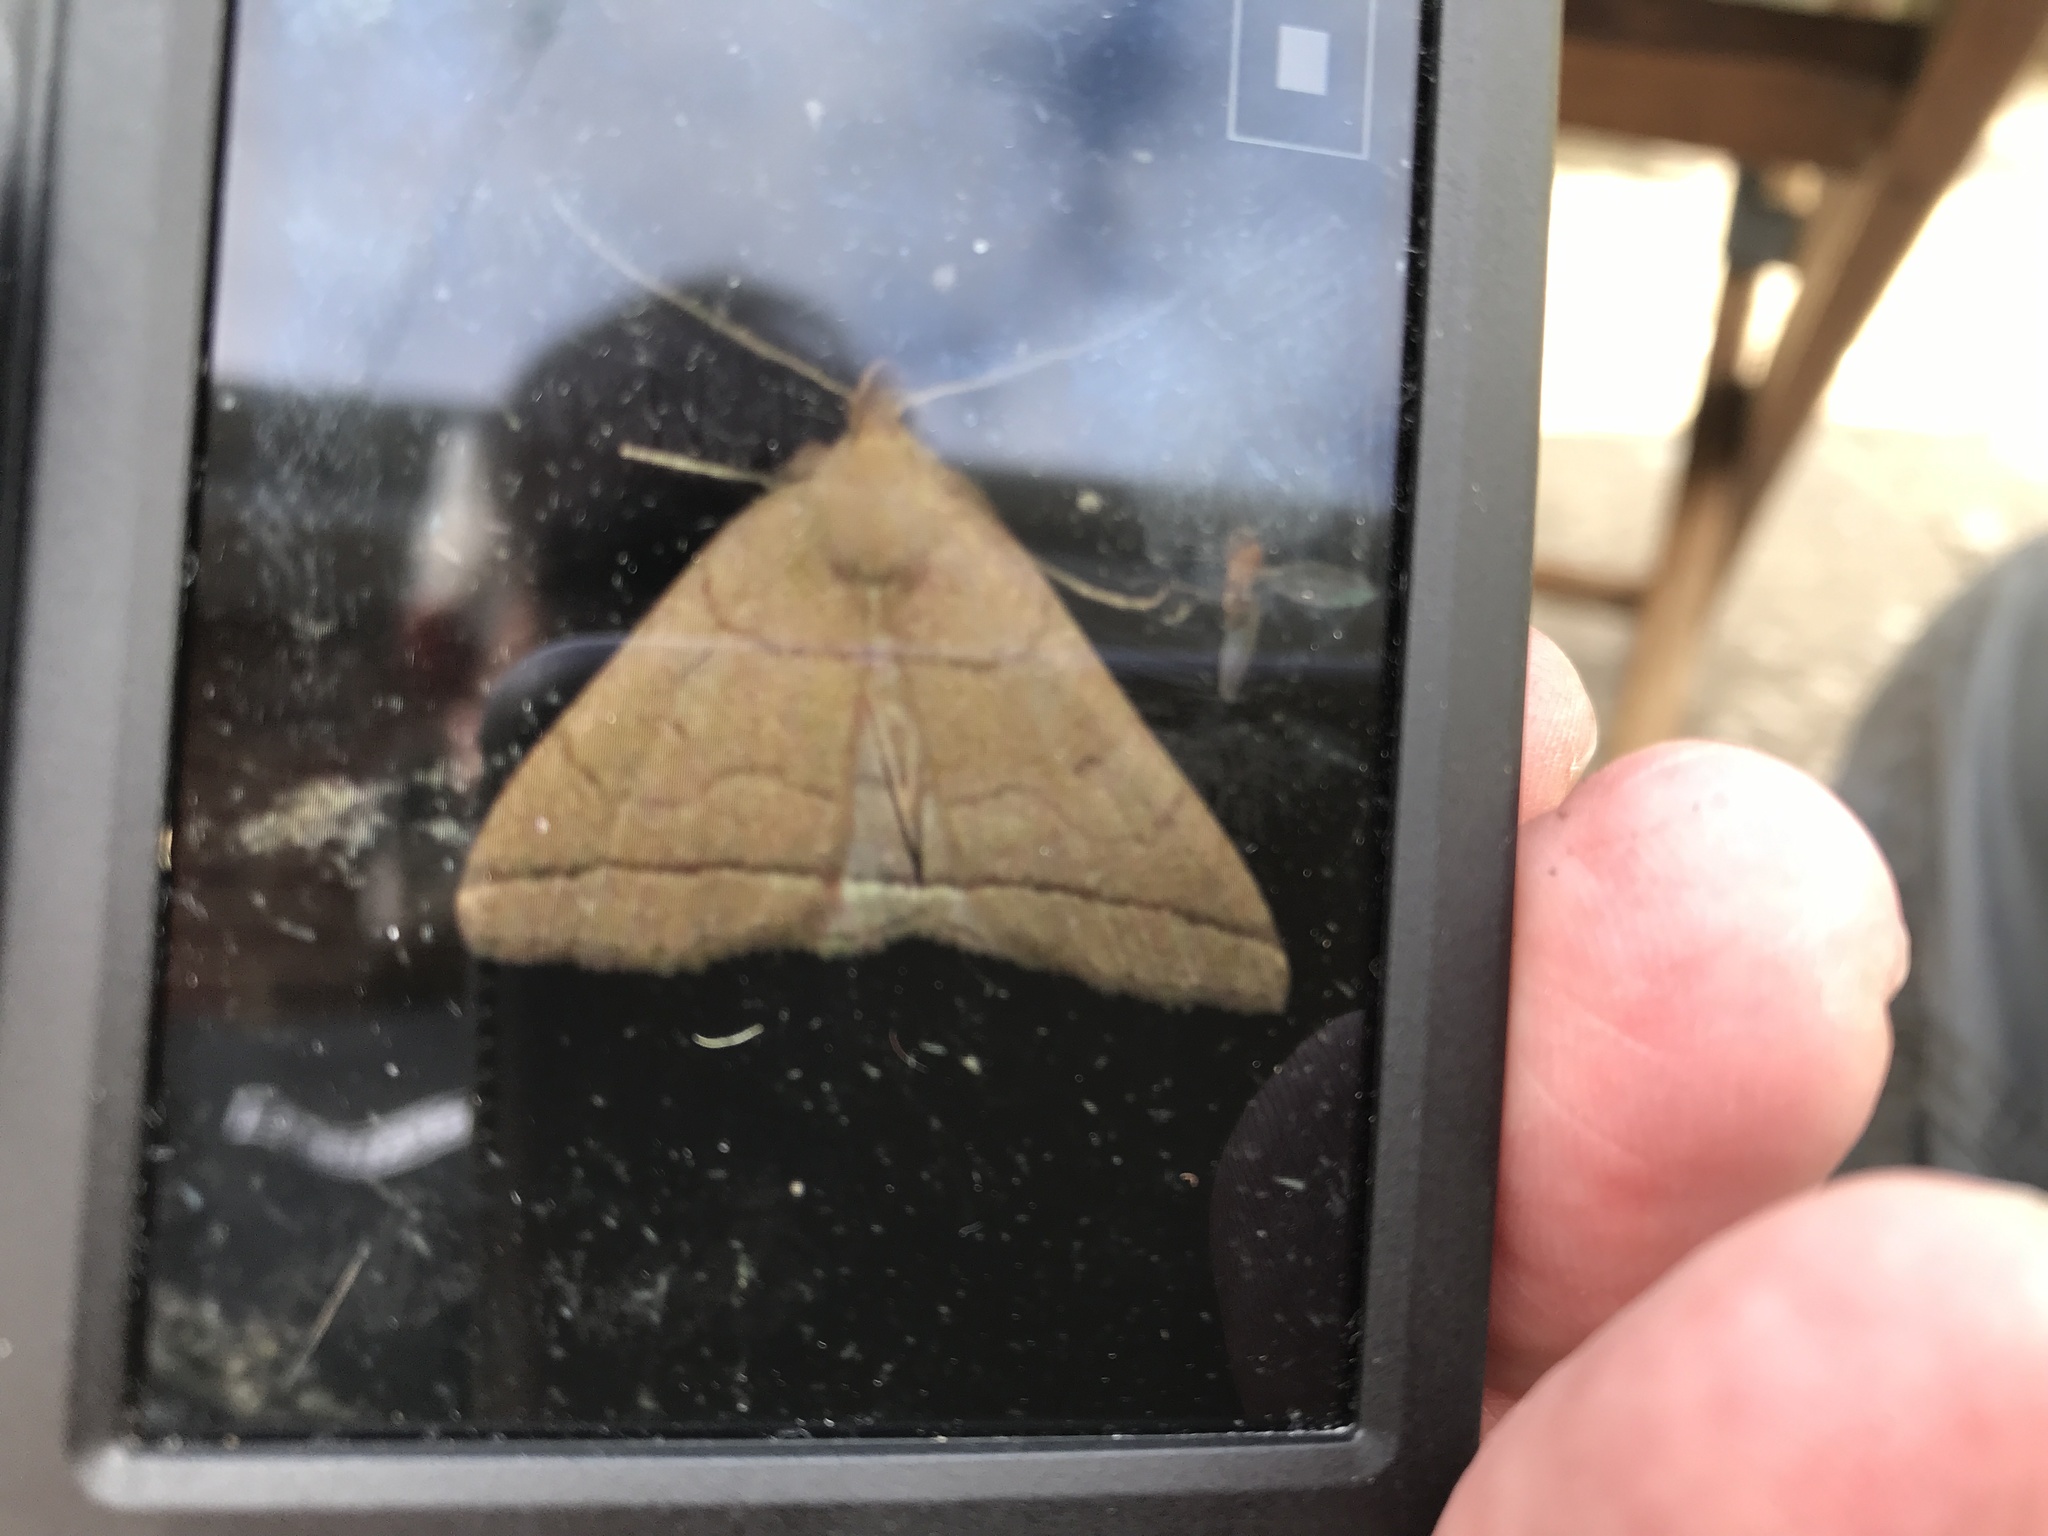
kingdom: Animalia
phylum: Arthropoda
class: Insecta
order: Lepidoptera
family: Erebidae
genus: Herminia
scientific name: Herminia tarsipennalis
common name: Fan-foot
